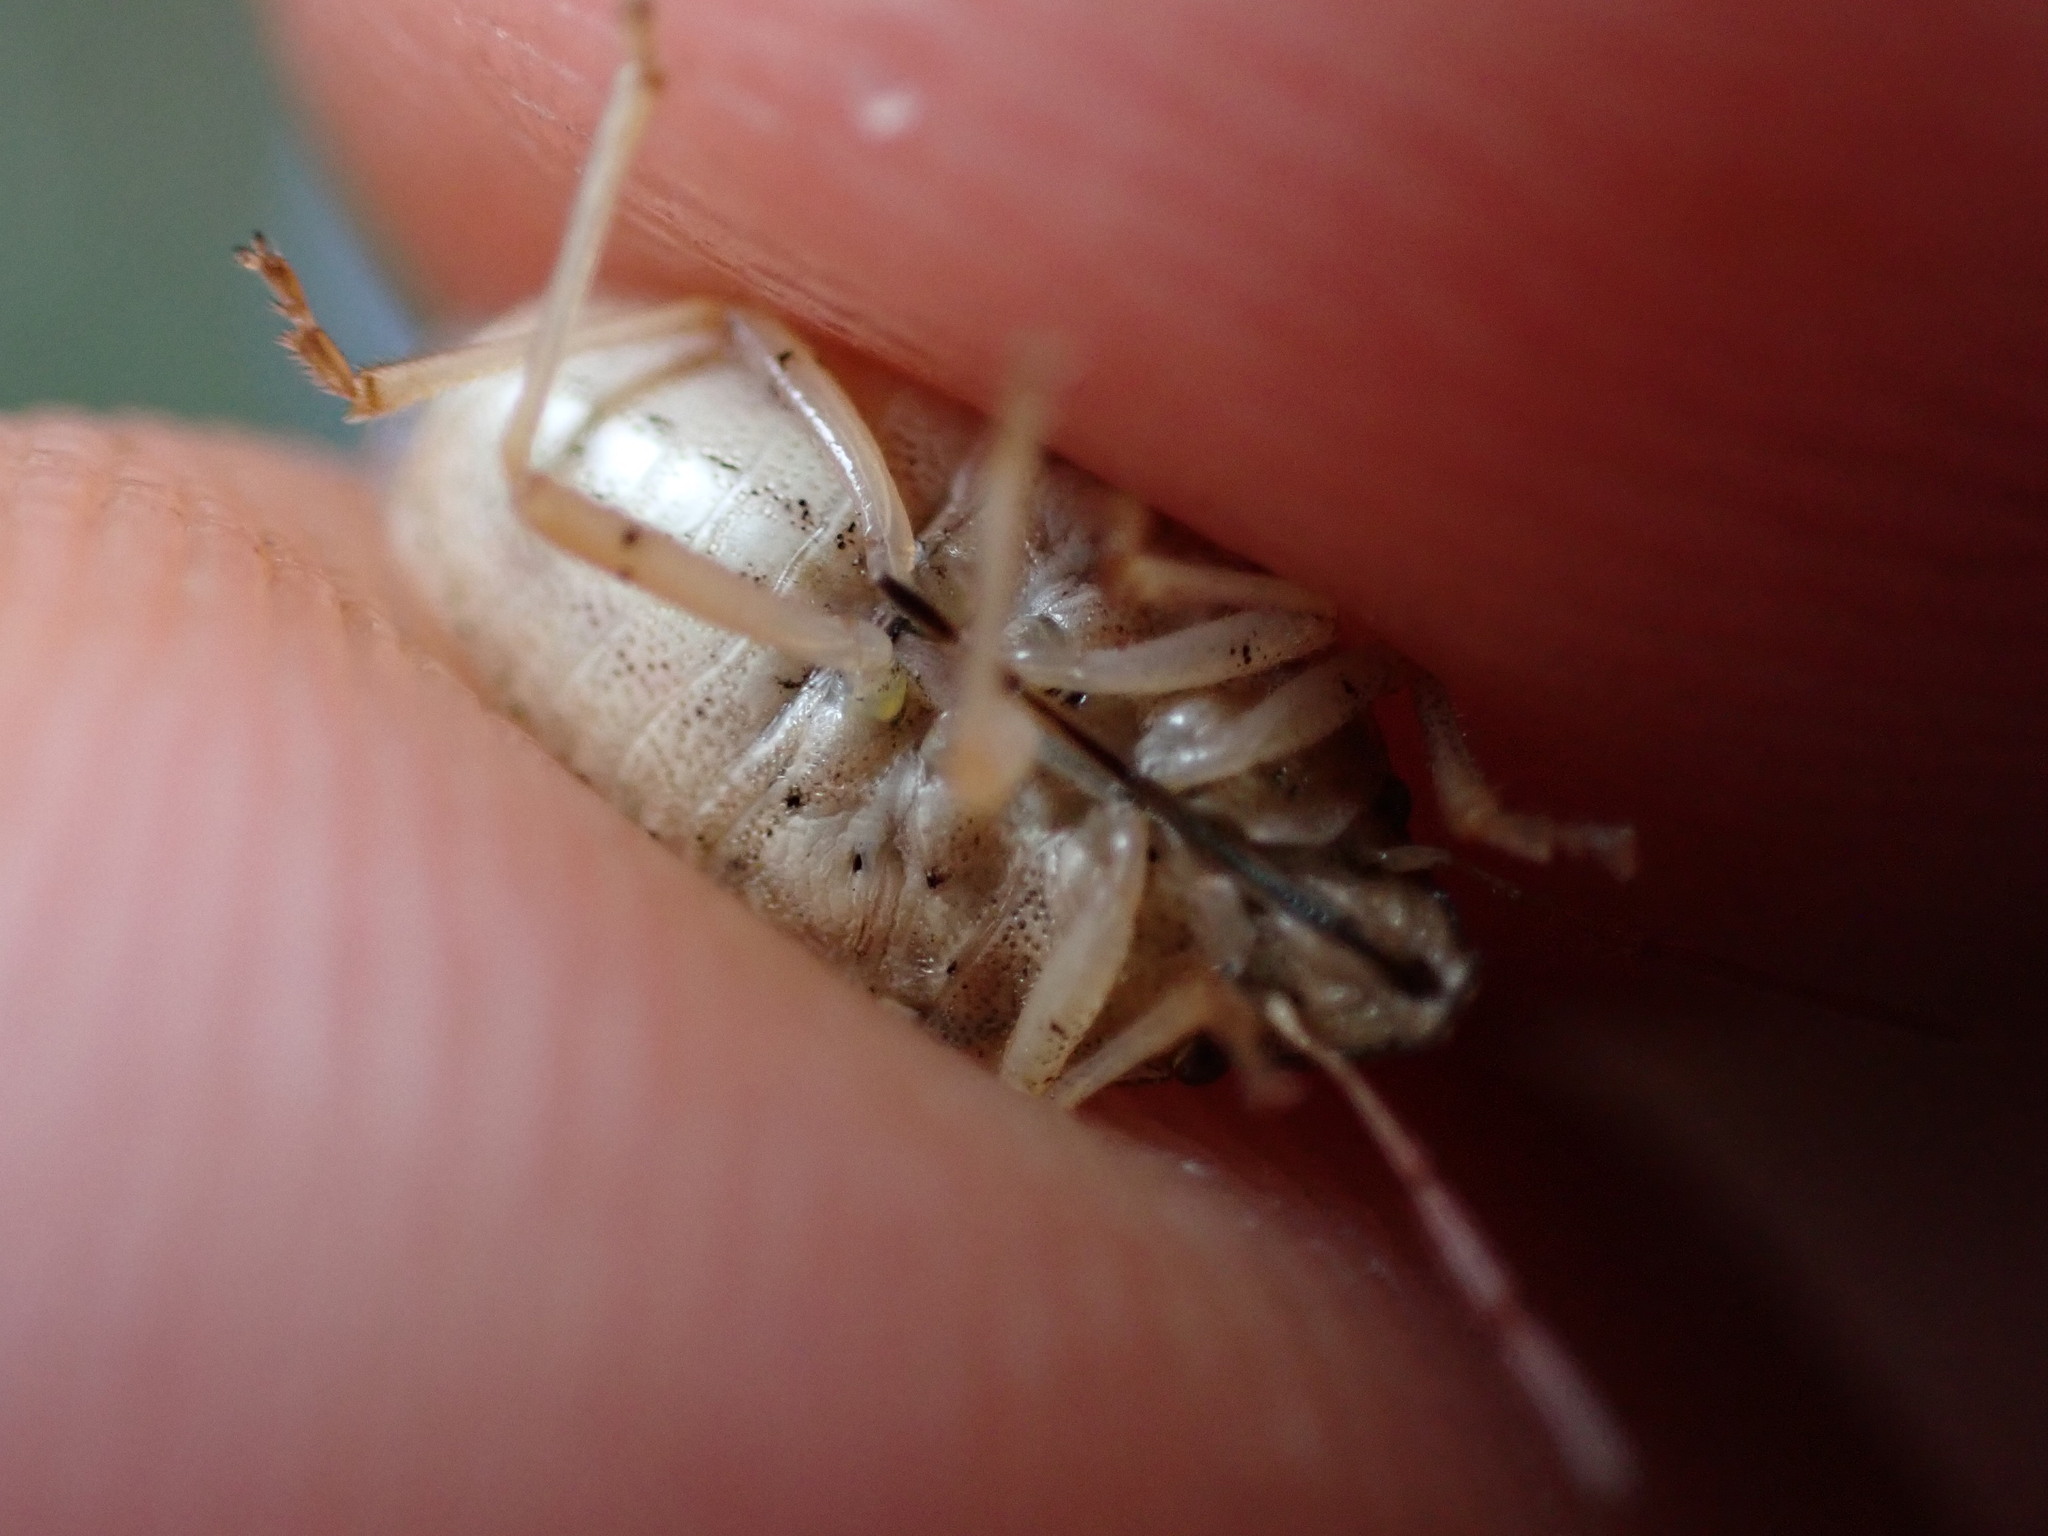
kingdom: Animalia
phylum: Arthropoda
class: Insecta
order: Hemiptera
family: Pentatomidae
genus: Aelia
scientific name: Aelia acuminata
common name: Bishop's mitre
